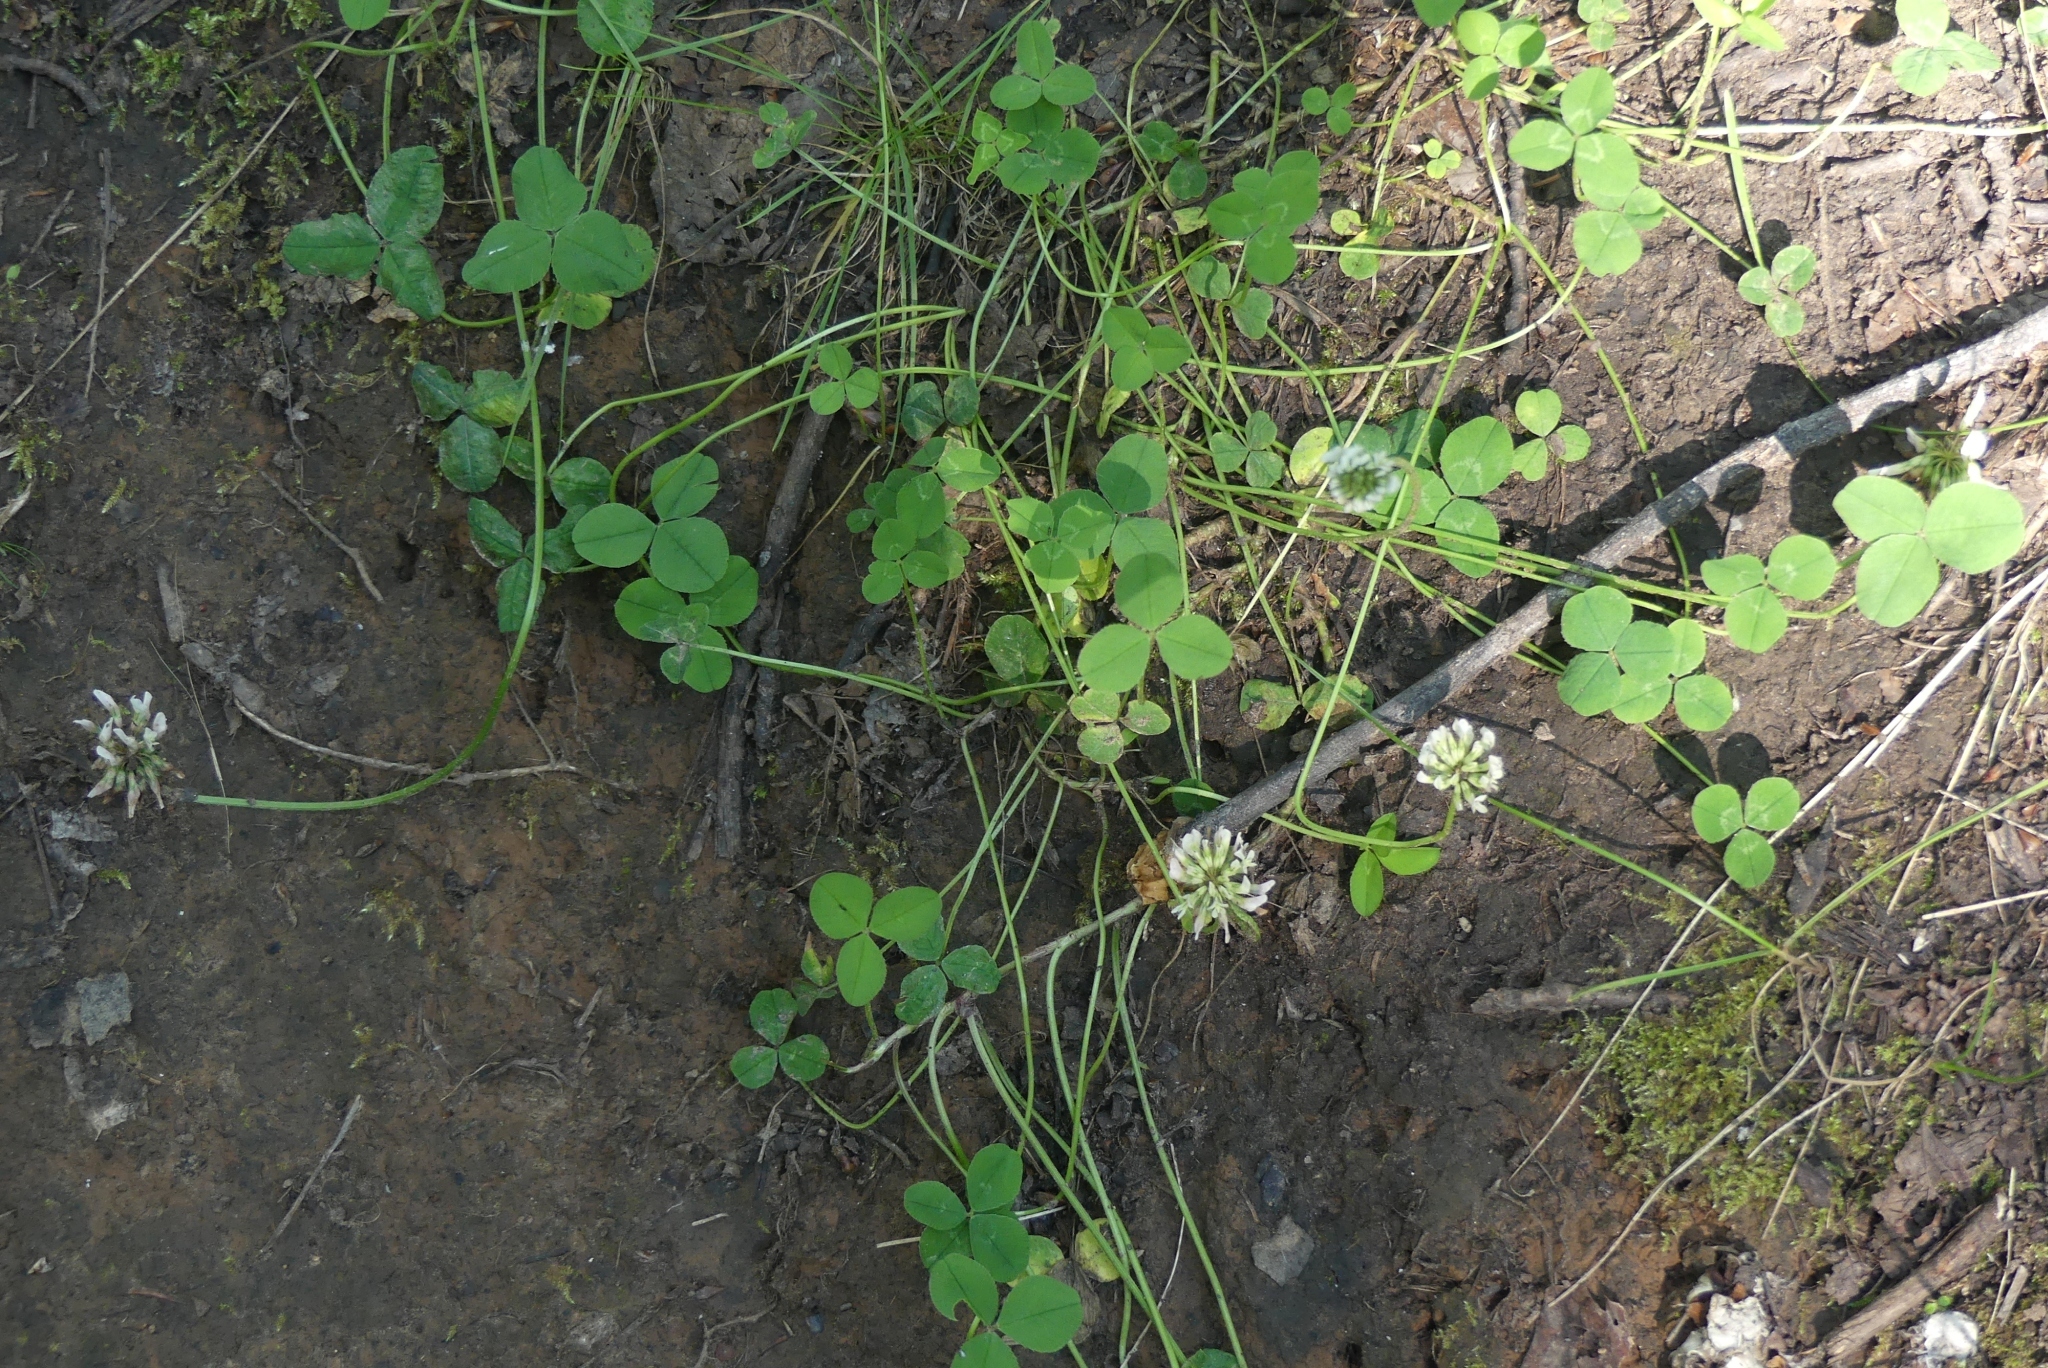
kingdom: Plantae
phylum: Tracheophyta
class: Magnoliopsida
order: Fabales
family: Fabaceae
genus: Trifolium
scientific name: Trifolium repens
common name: White clover
